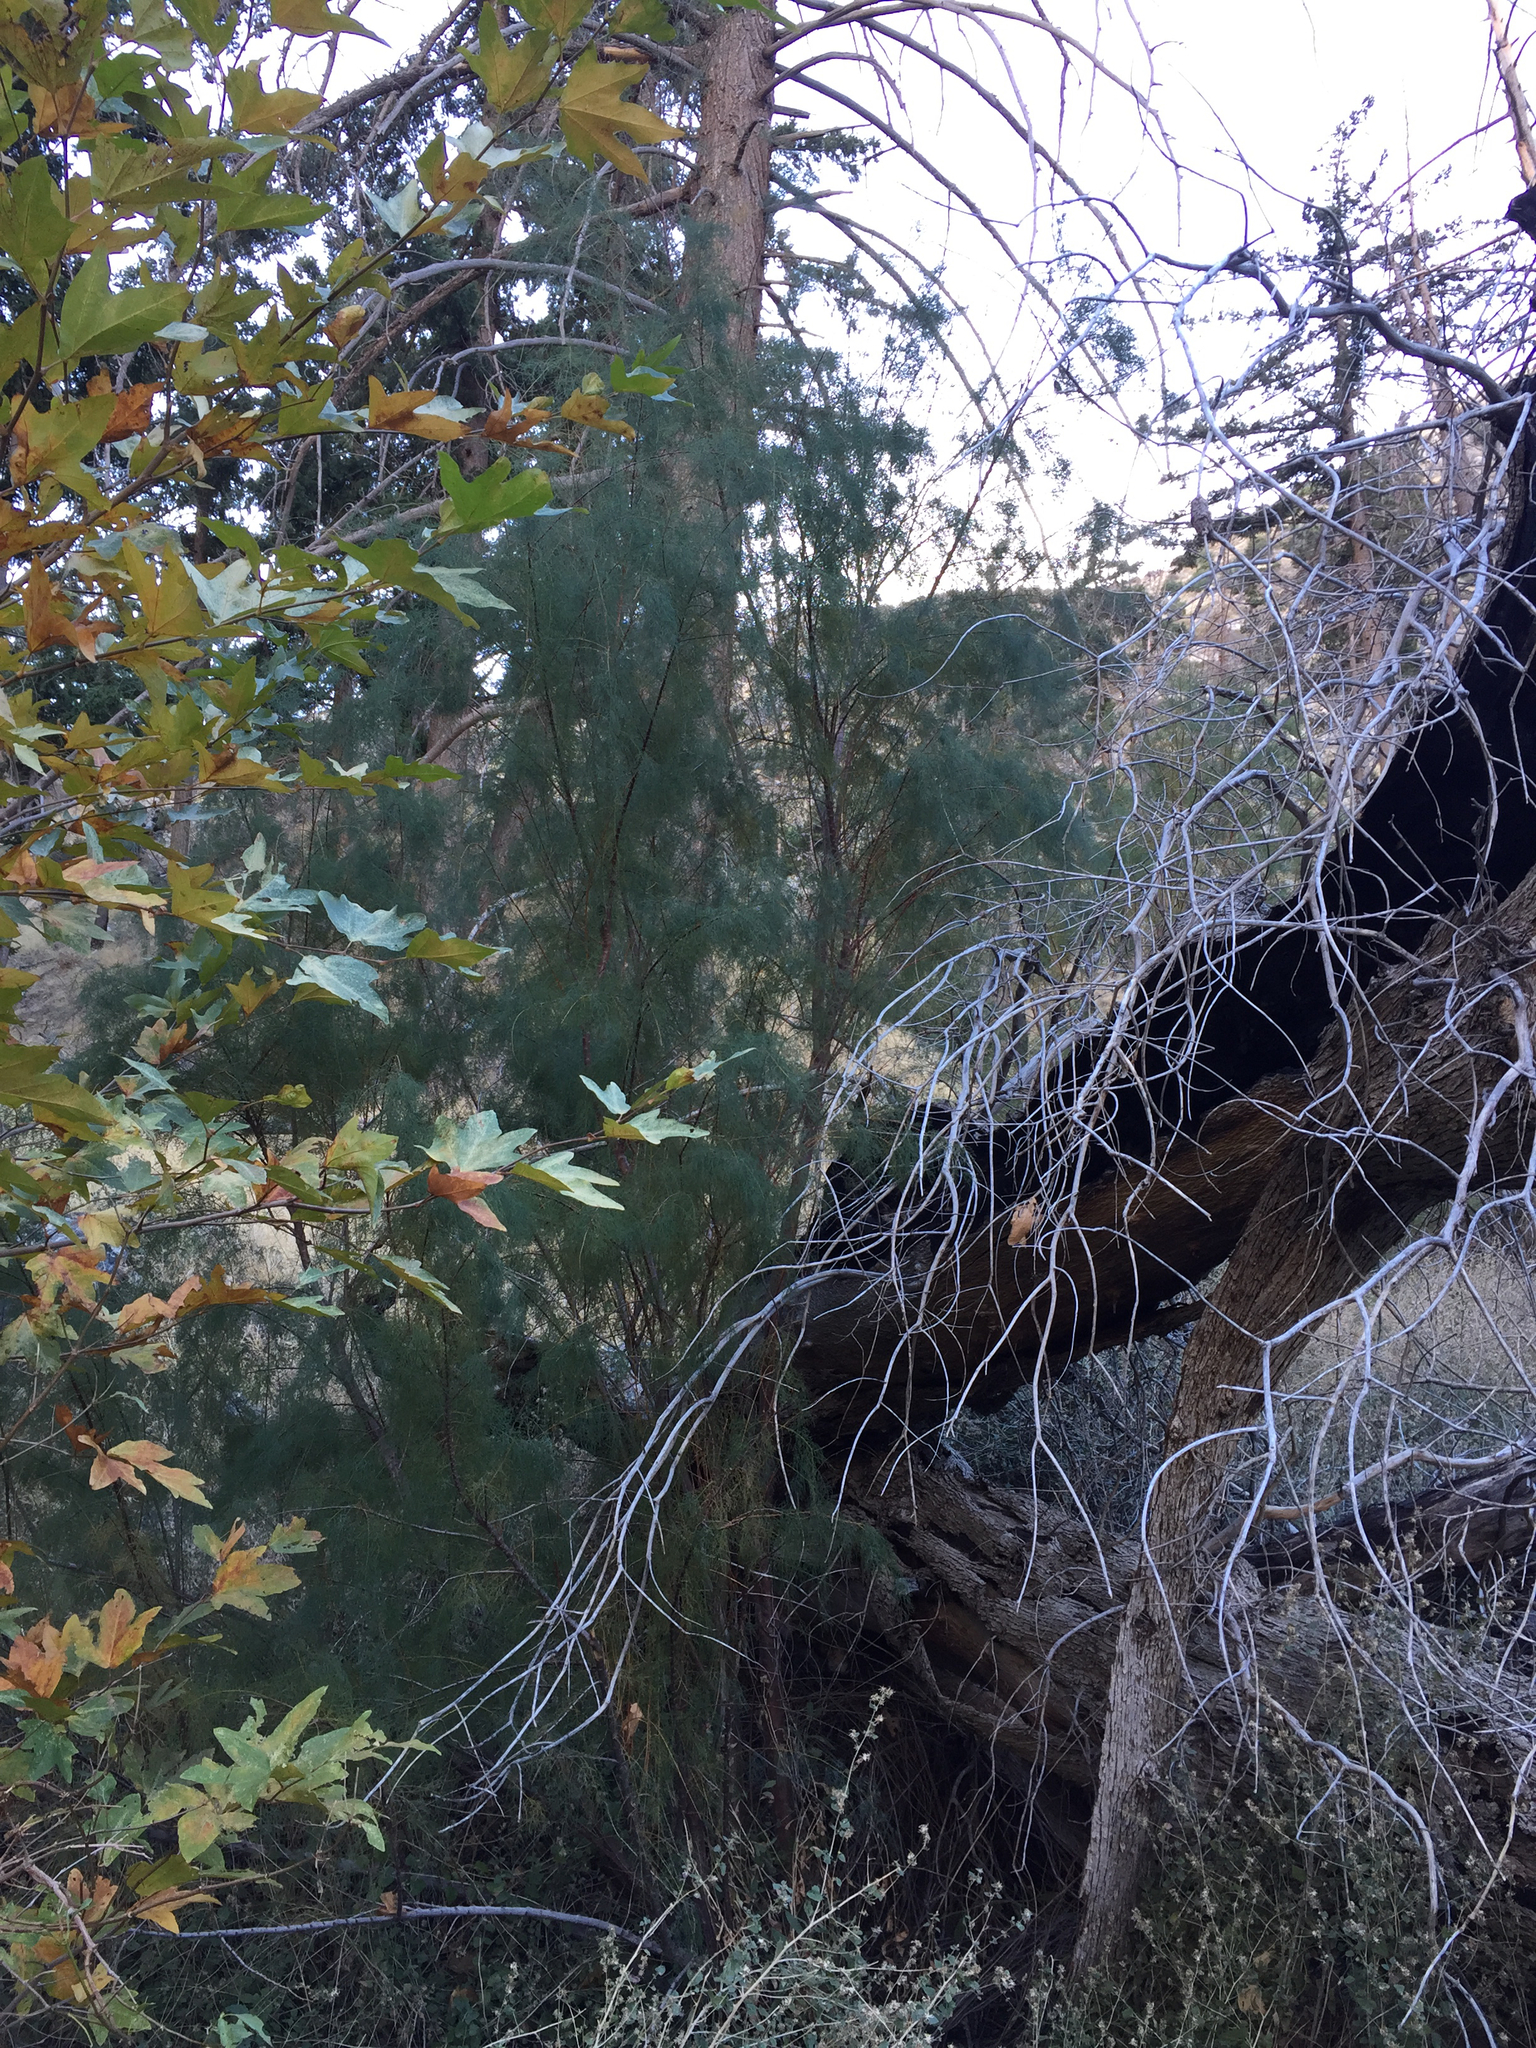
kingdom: Plantae
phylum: Tracheophyta
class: Magnoliopsida
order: Caryophyllales
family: Tamaricaceae
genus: Tamarix
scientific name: Tamarix ramosissima
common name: Pink tamarisk
